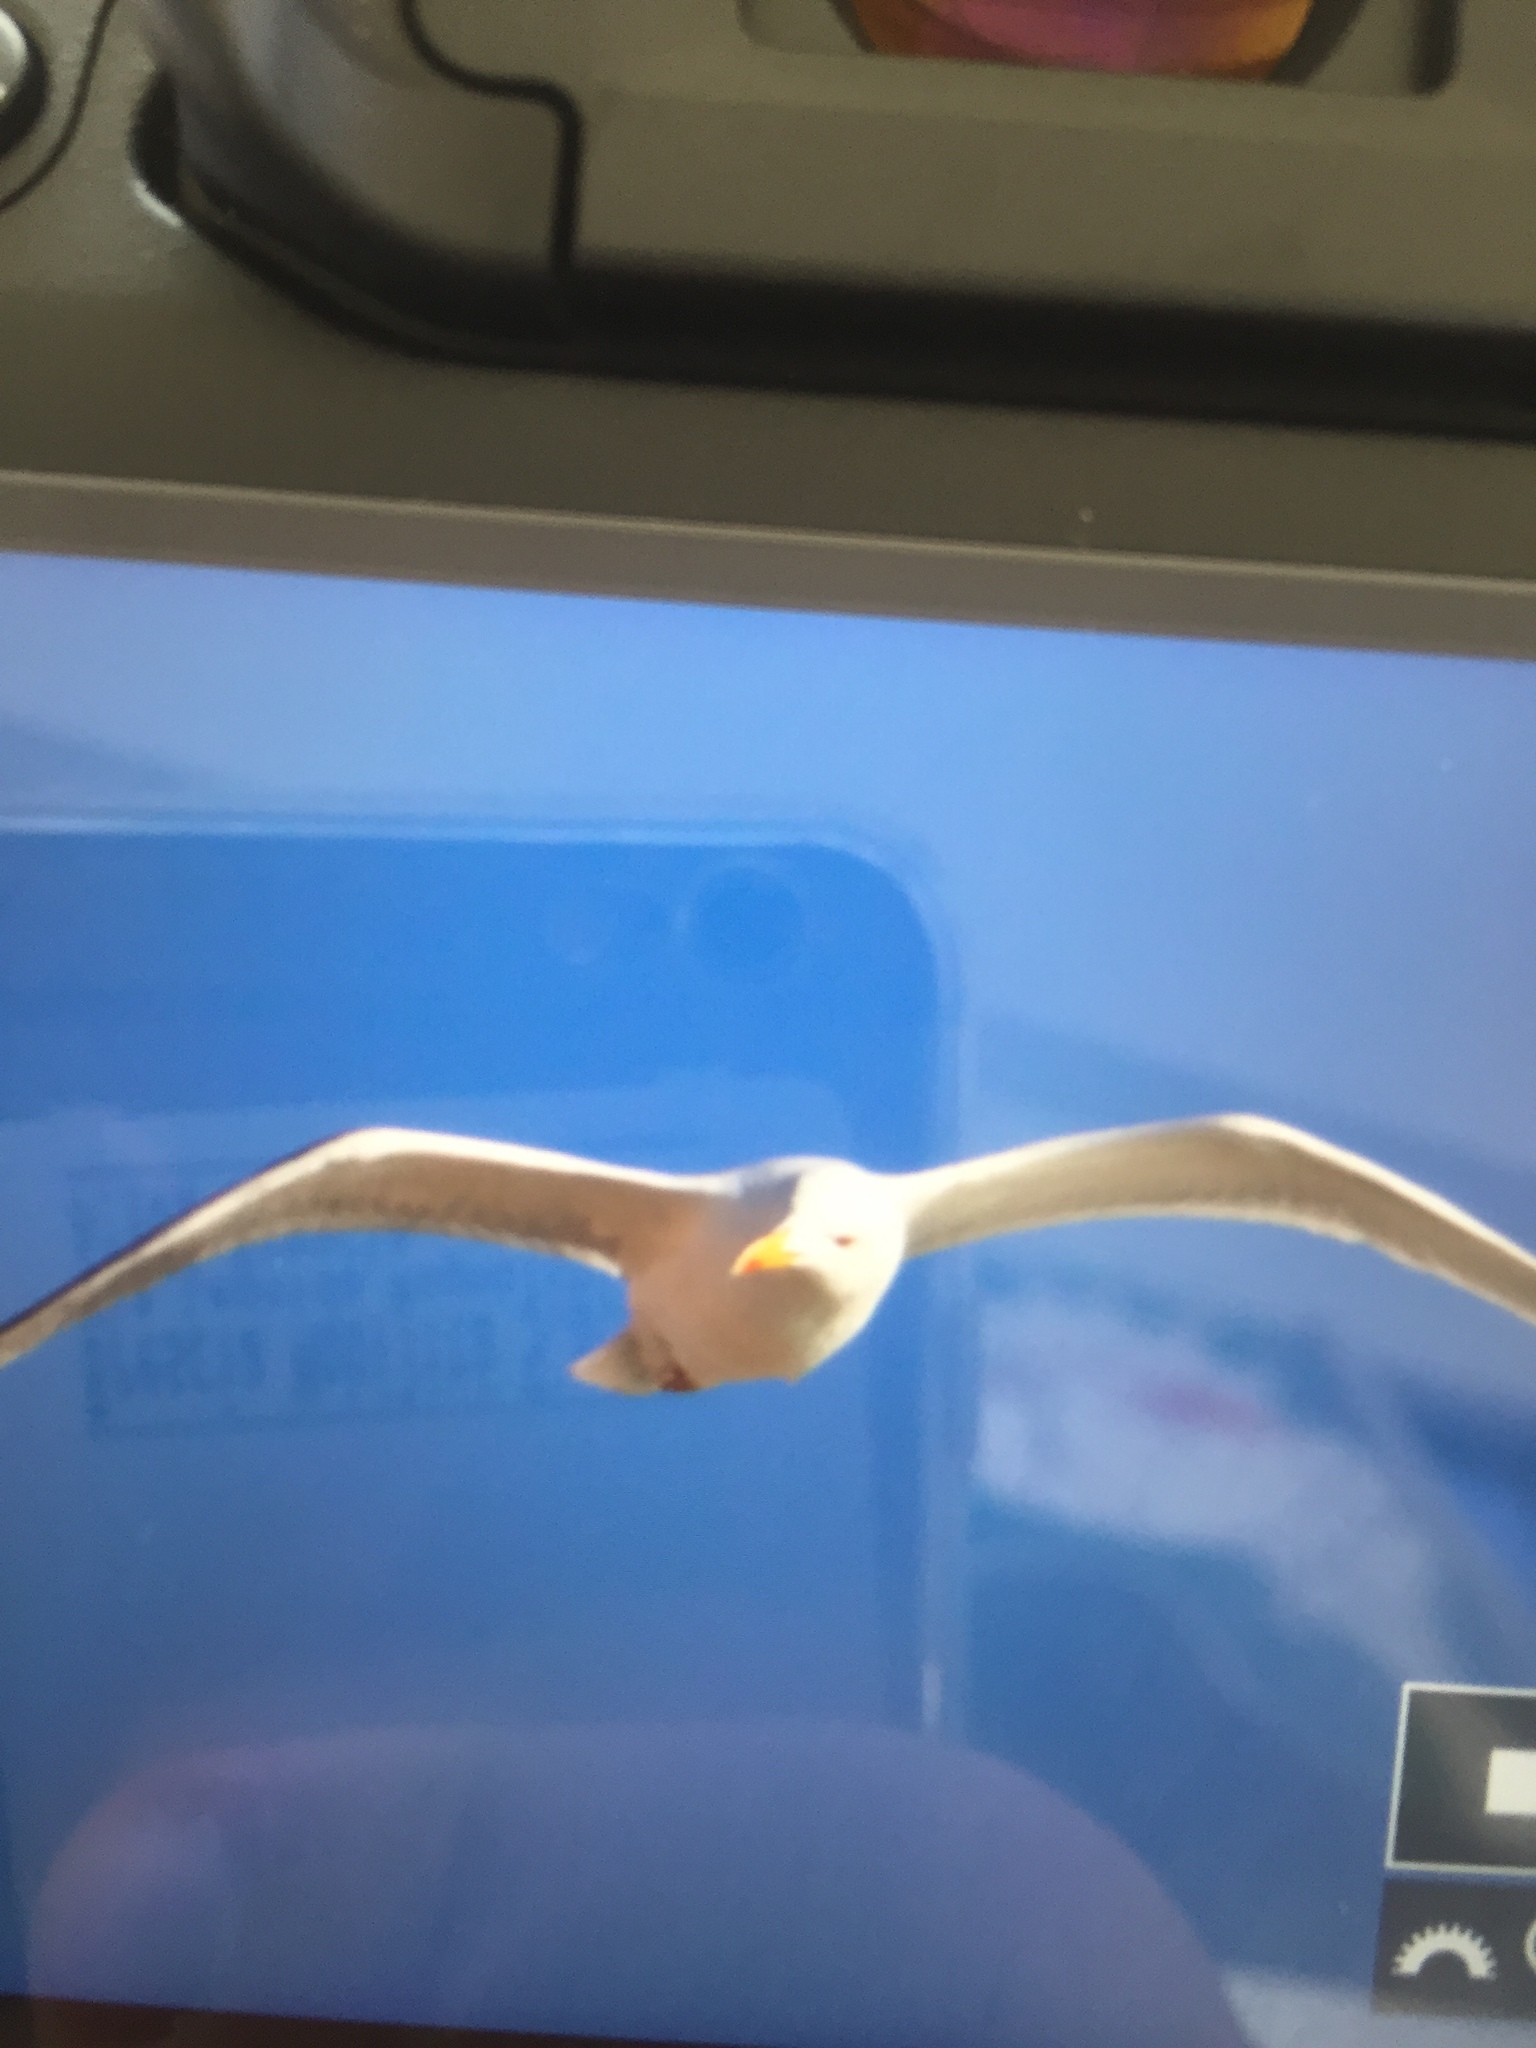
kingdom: Animalia
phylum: Chordata
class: Aves
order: Charadriiformes
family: Laridae
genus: Larus
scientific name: Larus michahellis
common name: Yellow-legged gull
